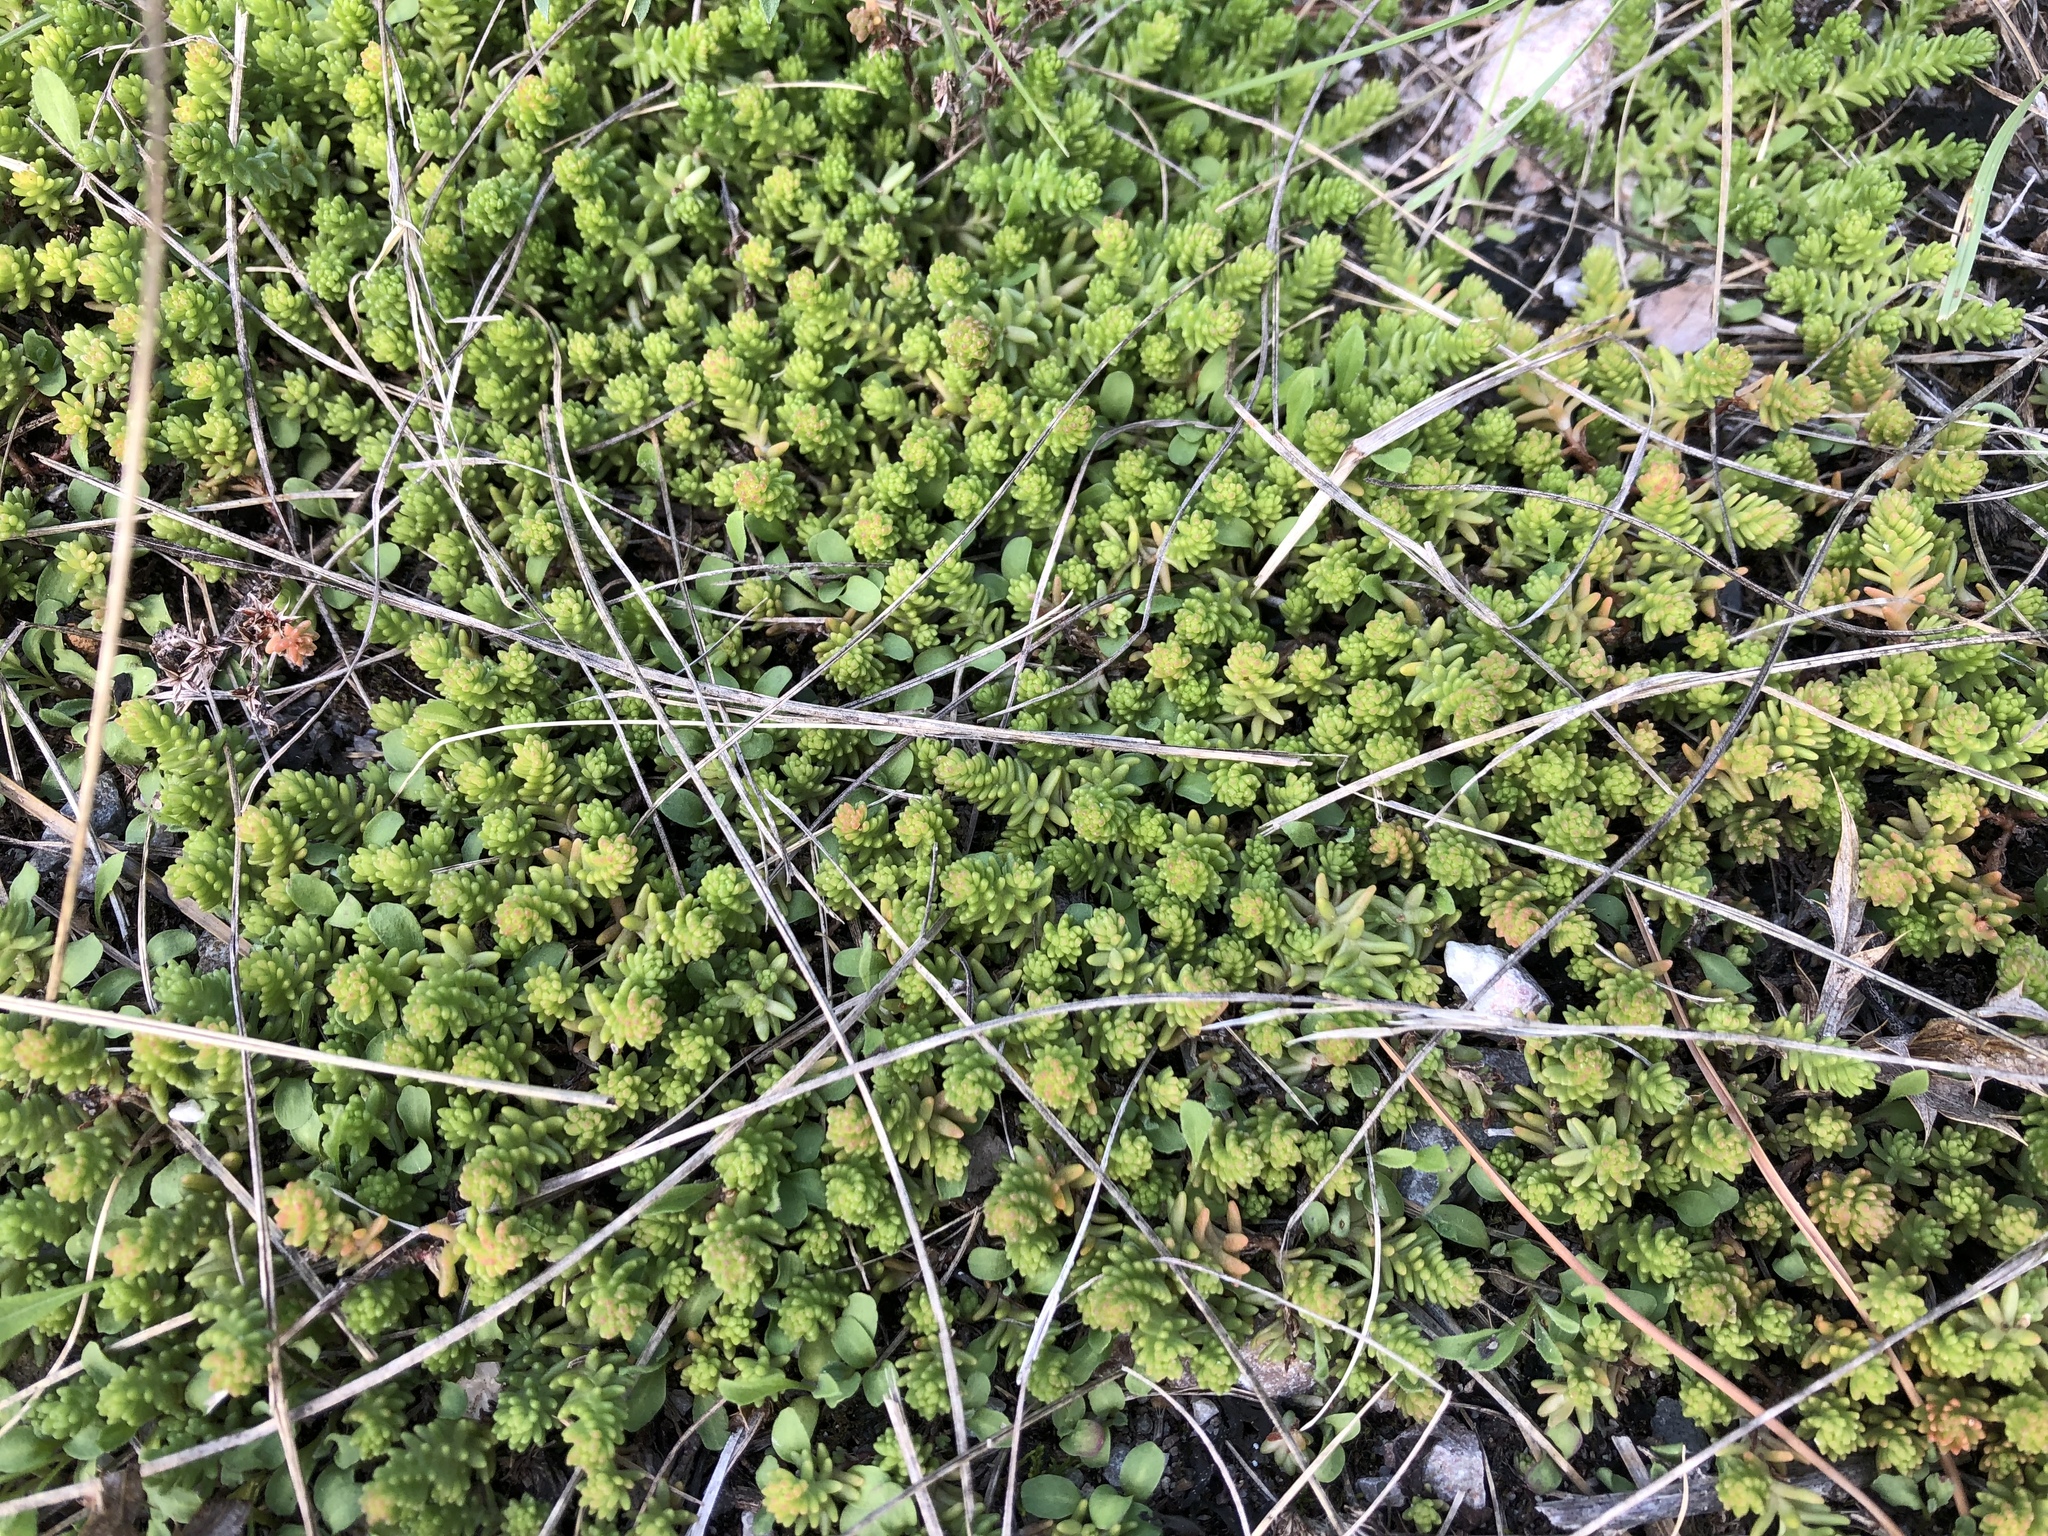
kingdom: Plantae
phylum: Tracheophyta
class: Magnoliopsida
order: Saxifragales
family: Crassulaceae
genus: Sedum
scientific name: Sedum sexangulare
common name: Tasteless stonecrop
